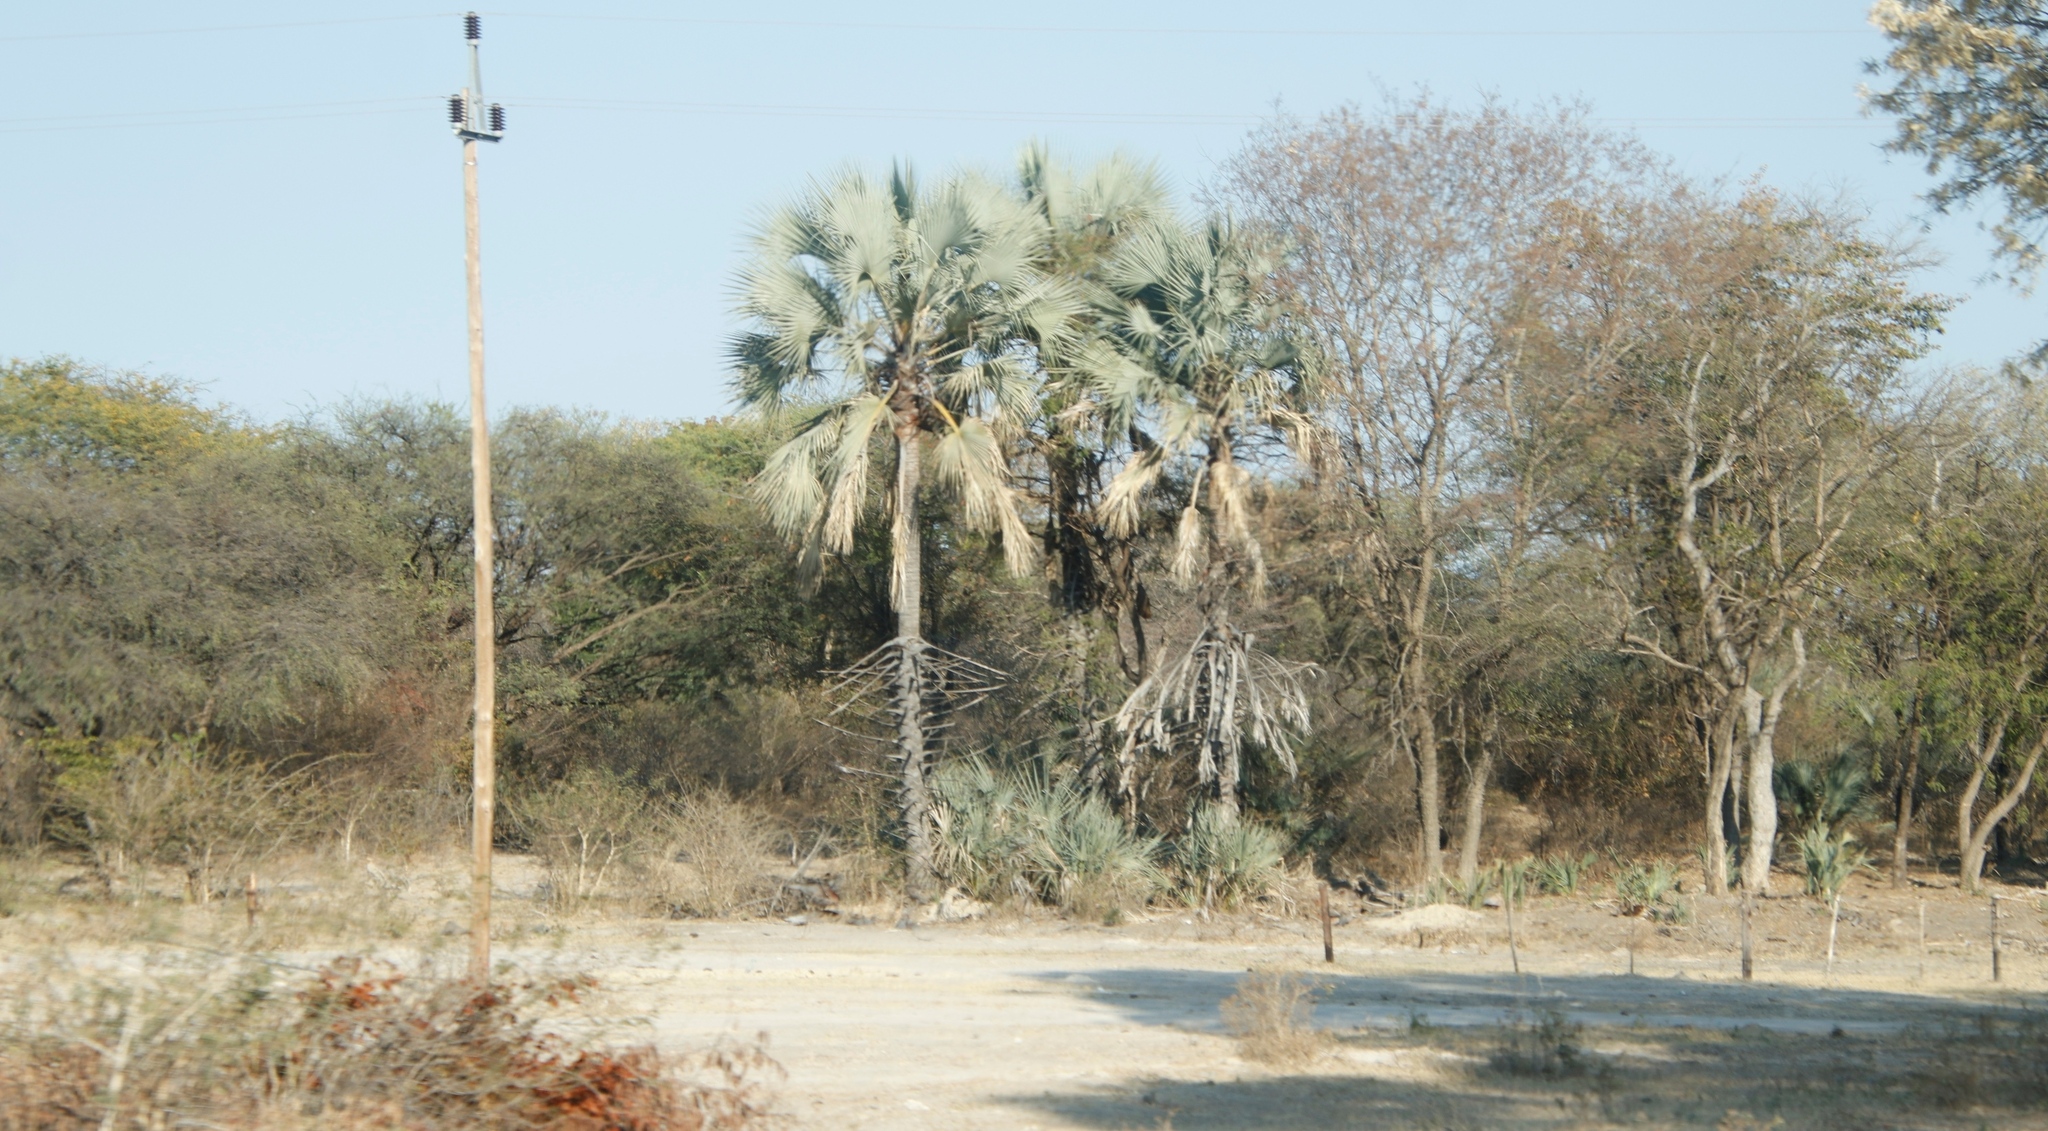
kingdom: Plantae
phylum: Tracheophyta
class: Liliopsida
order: Arecales
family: Arecaceae
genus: Hyphaene
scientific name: Hyphaene petersiana
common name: African ivory nut palm
